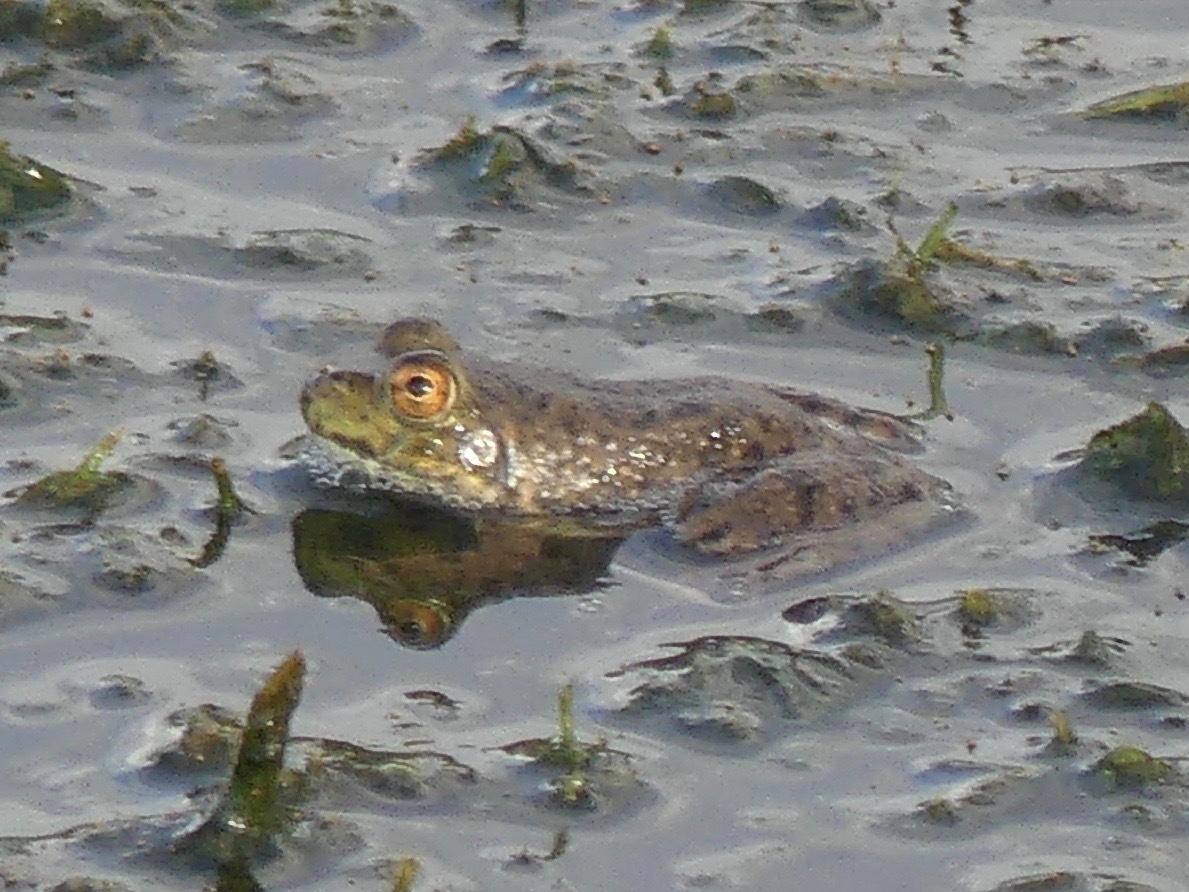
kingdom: Animalia
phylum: Chordata
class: Amphibia
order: Anura
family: Ranidae
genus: Lithobates
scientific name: Lithobates catesbeianus
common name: American bullfrog
